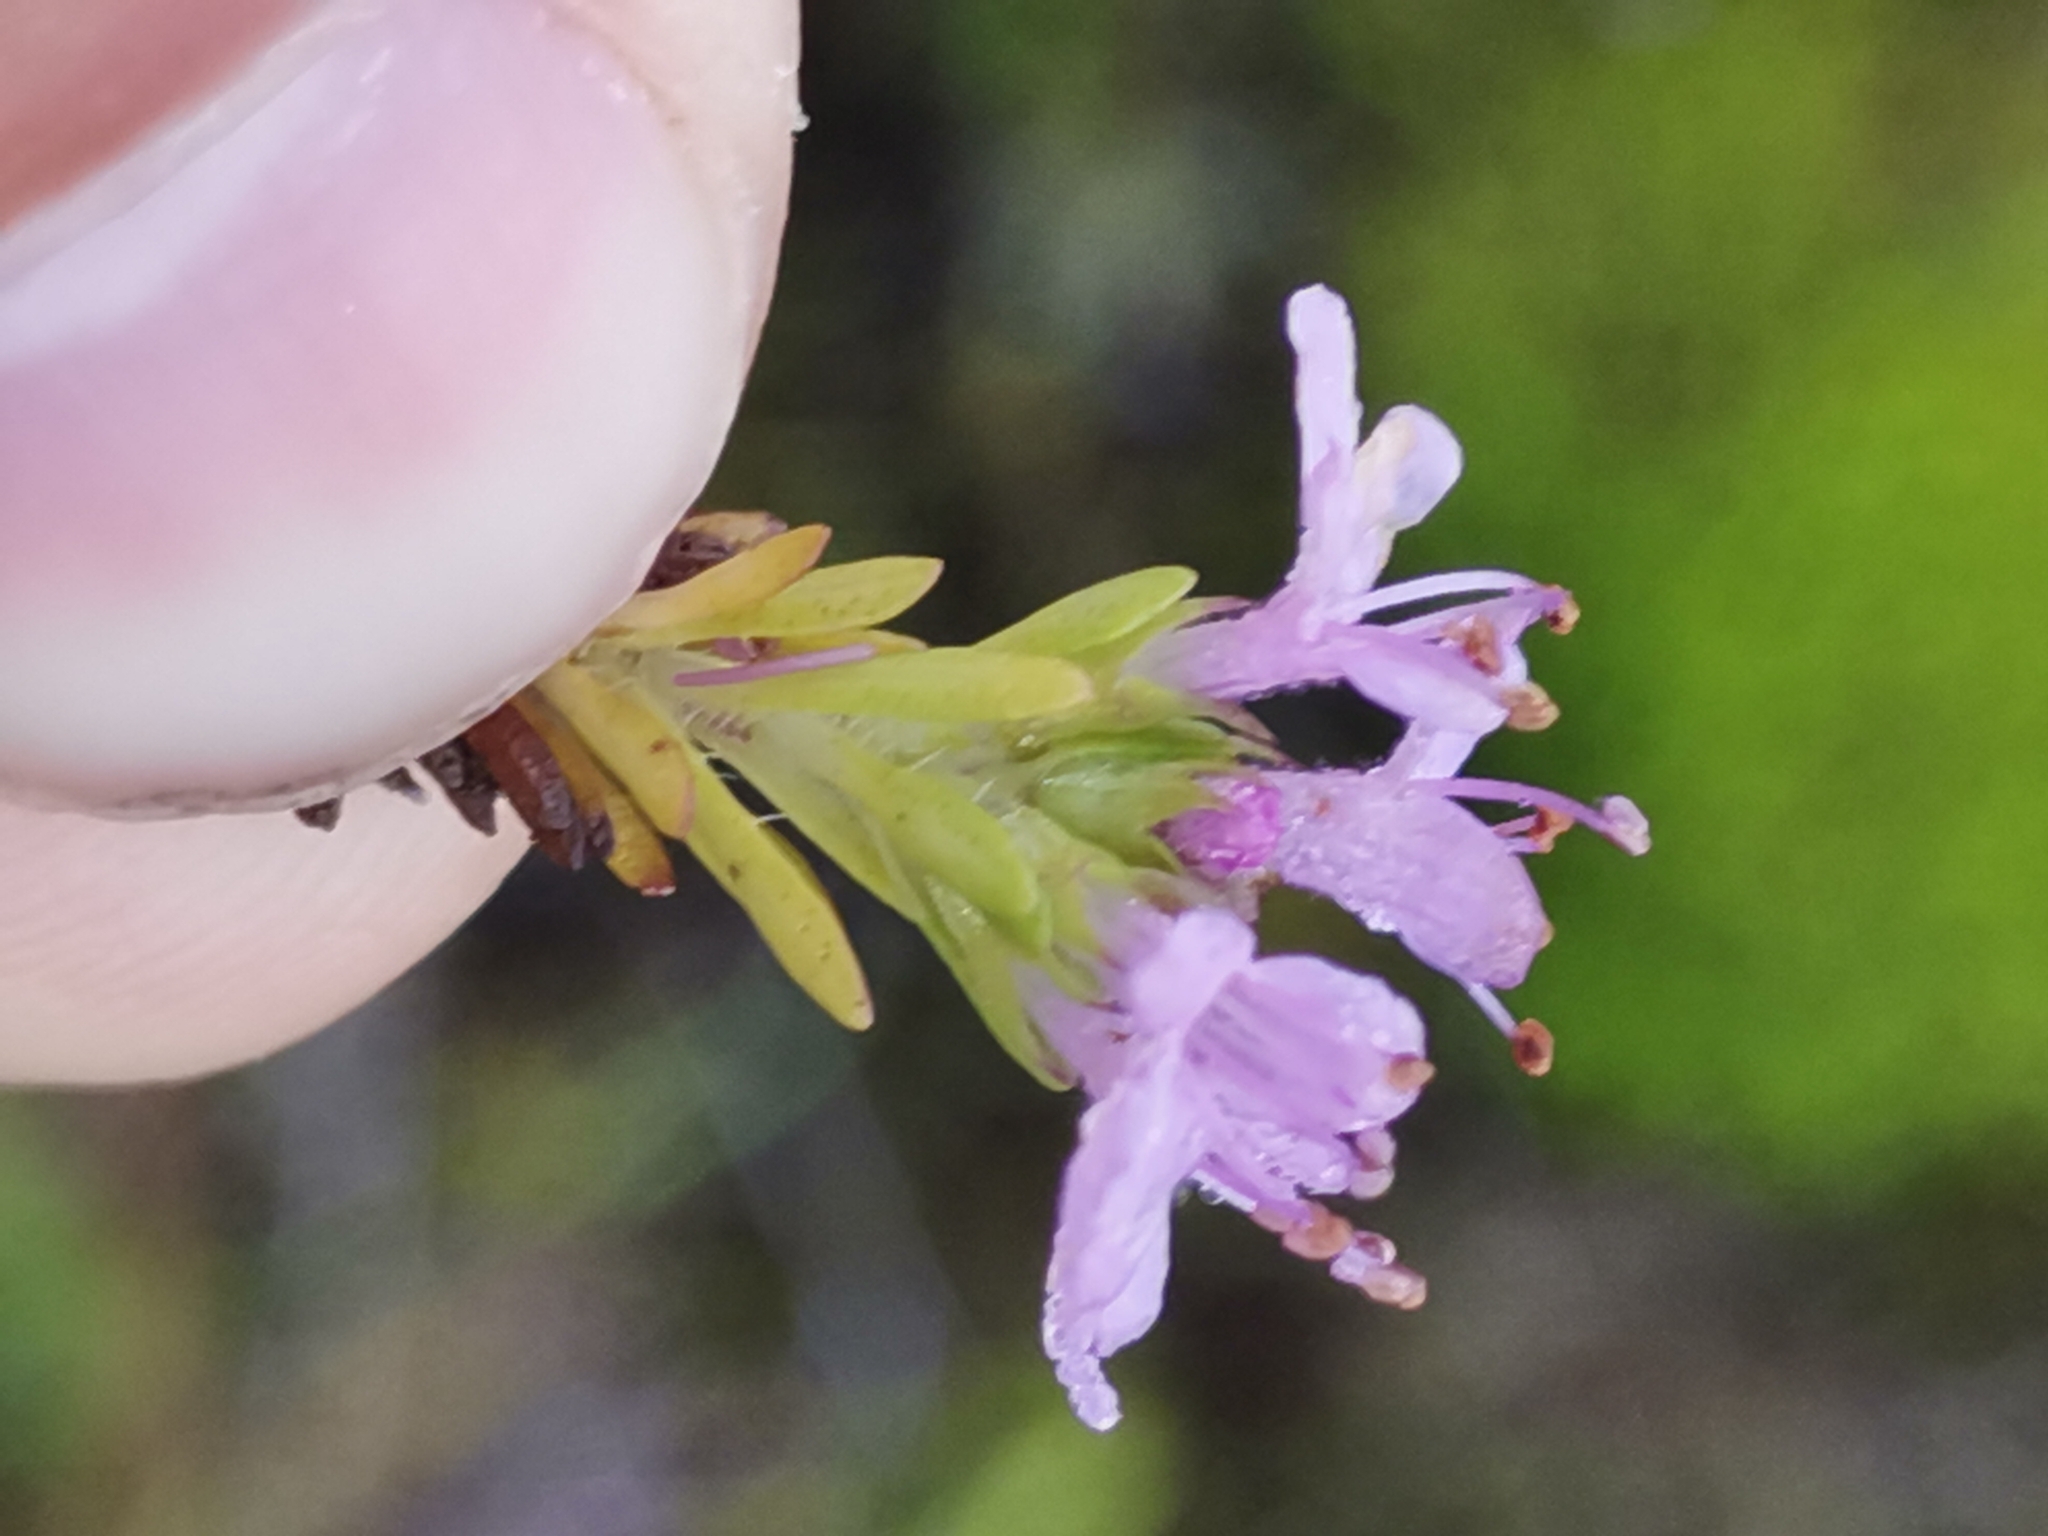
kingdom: Plantae
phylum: Tracheophyta
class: Magnoliopsida
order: Lamiales
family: Lamiaceae
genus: Thymus
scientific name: Thymus caespititius
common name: Azores thyme
